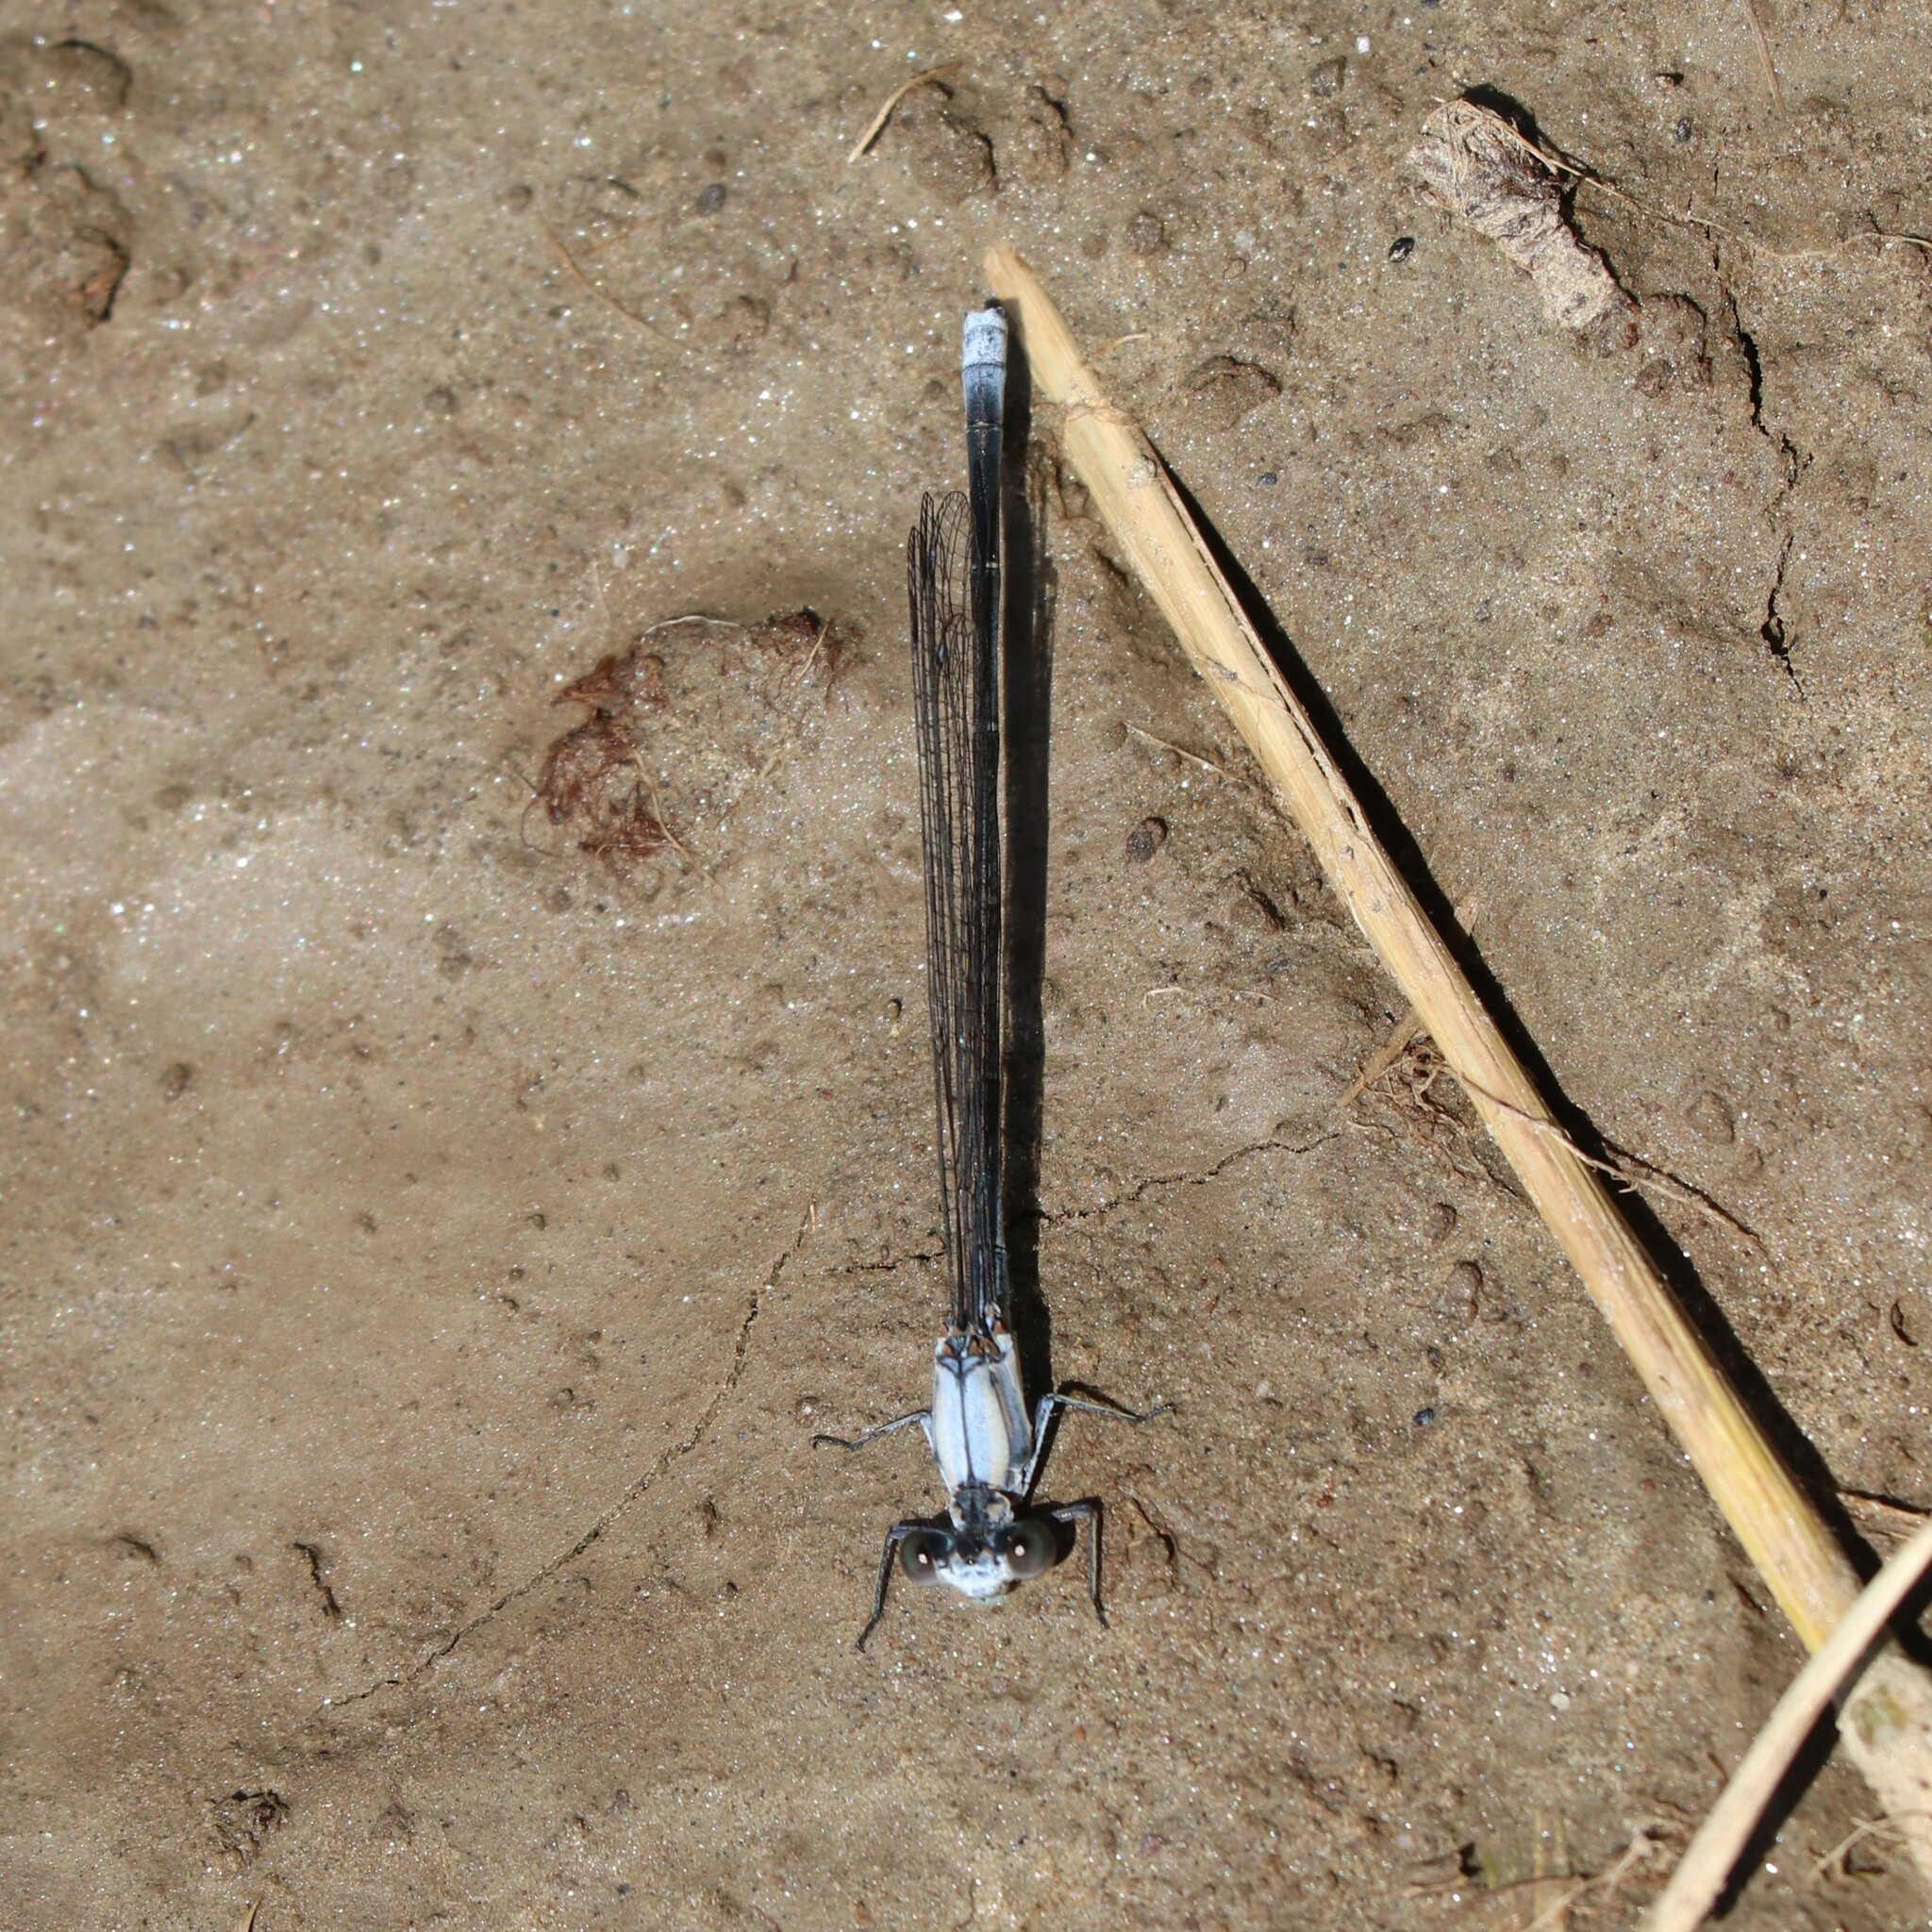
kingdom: Animalia
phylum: Arthropoda
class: Insecta
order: Odonata
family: Coenagrionidae
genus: Argia
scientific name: Argia moesta
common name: Powdered dancer
